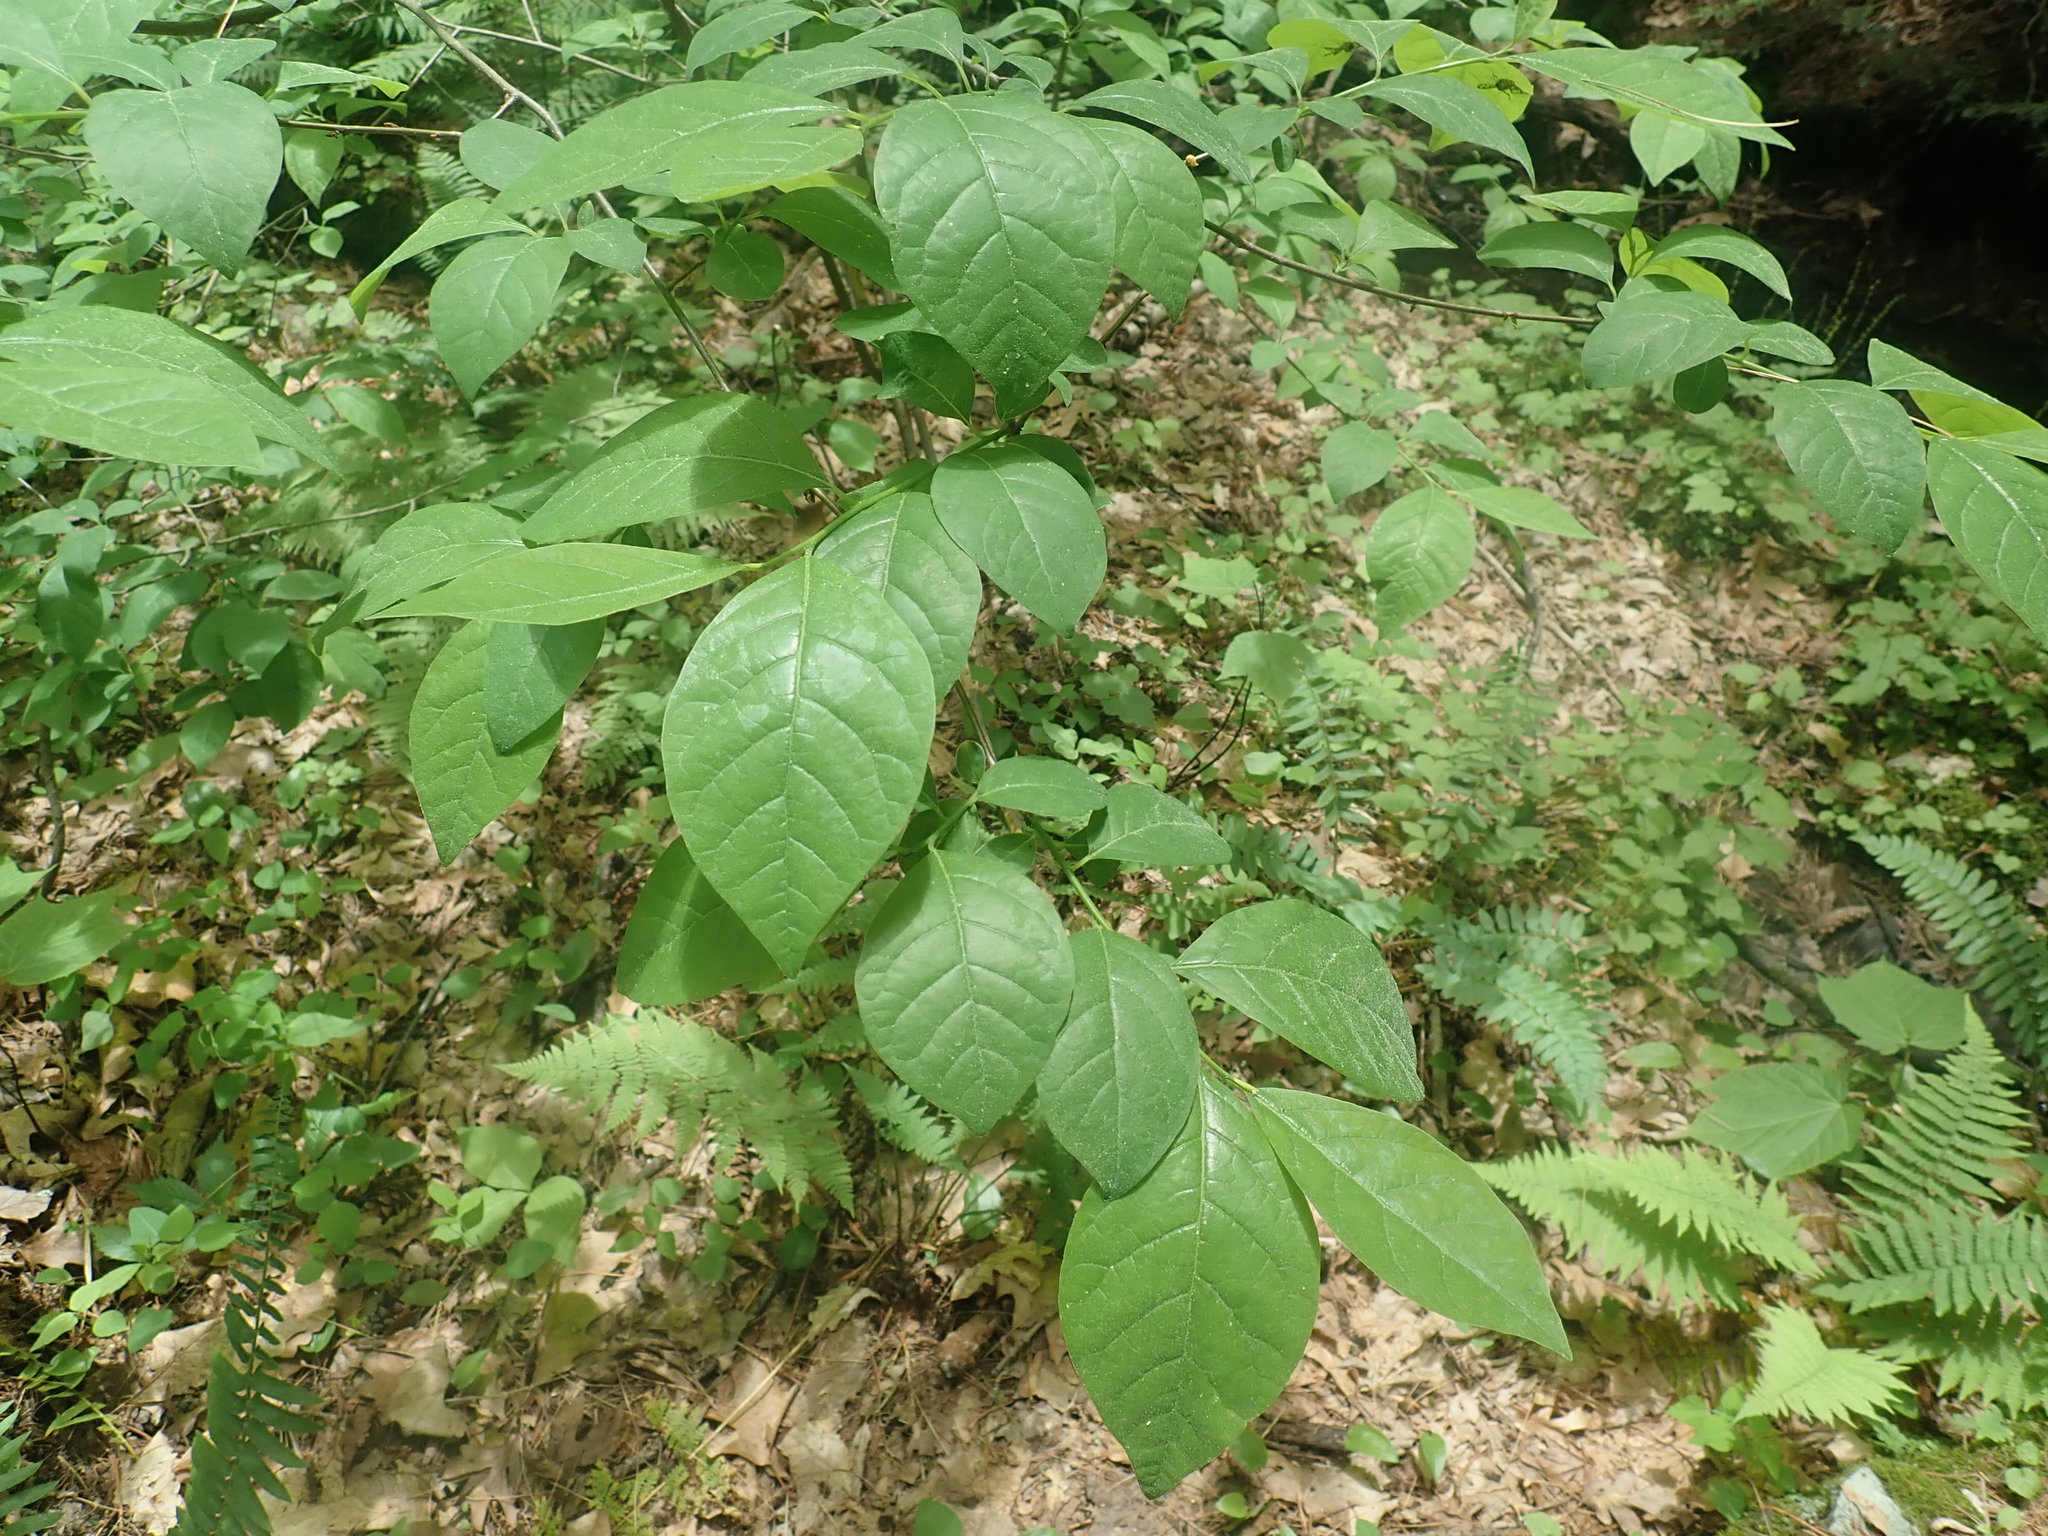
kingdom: Plantae
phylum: Tracheophyta
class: Magnoliopsida
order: Laurales
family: Lauraceae
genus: Lindera
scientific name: Lindera benzoin
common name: Spicebush
